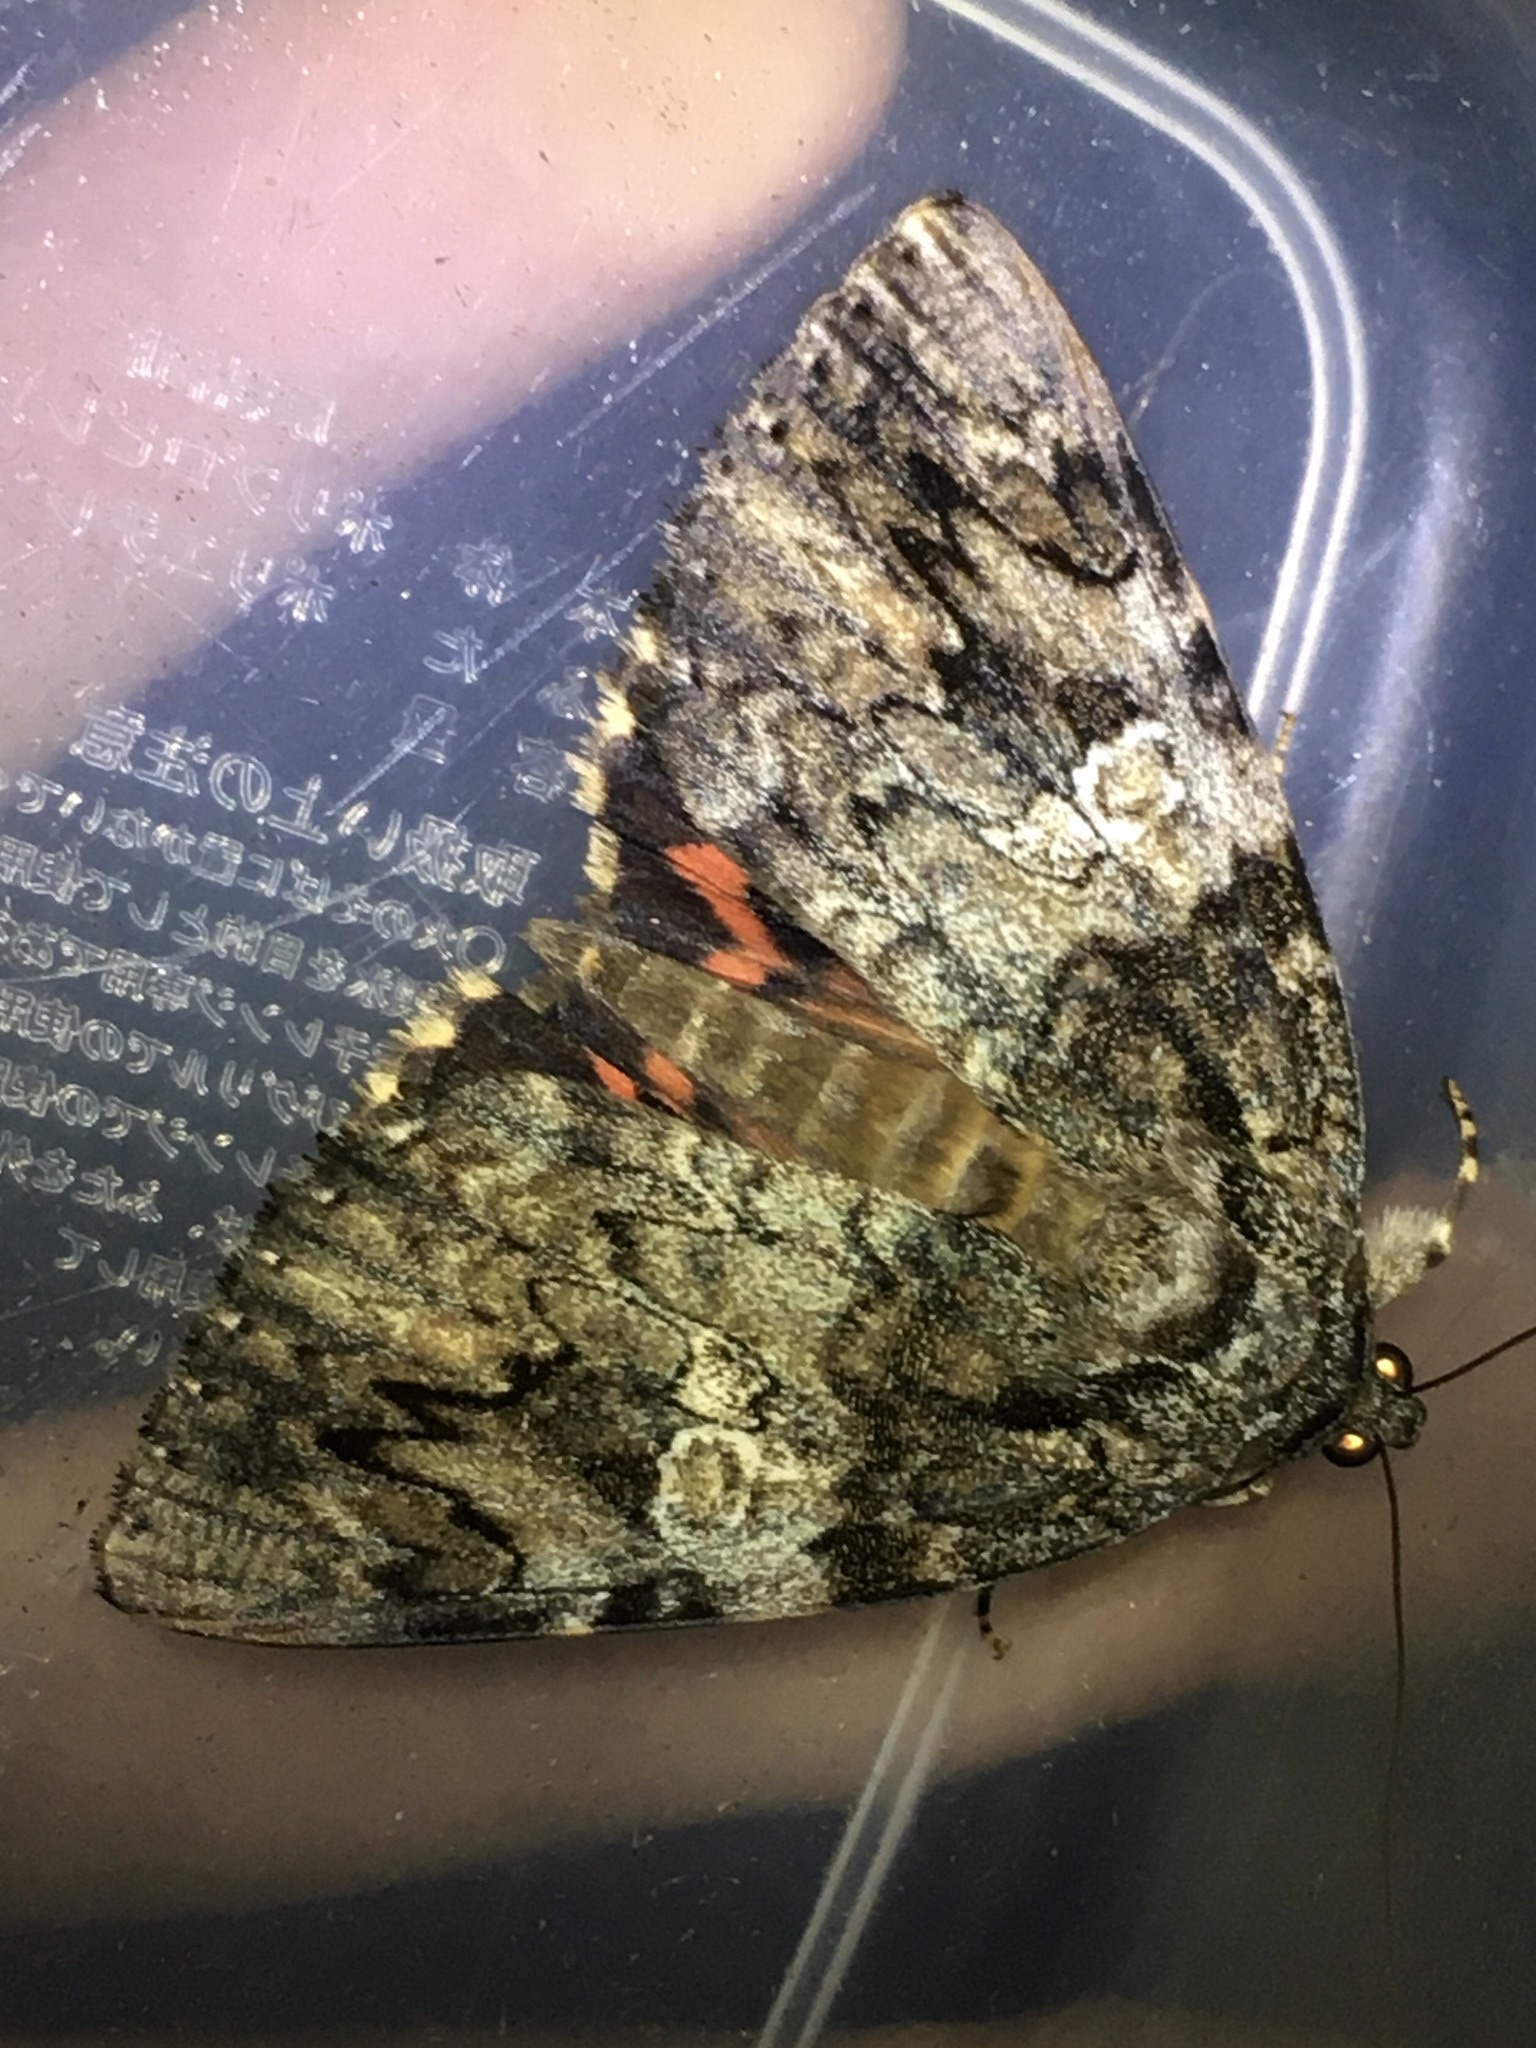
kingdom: Animalia
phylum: Arthropoda
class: Insecta
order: Lepidoptera
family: Erebidae
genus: Catocala
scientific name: Catocala ilia
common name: Ilia underwing
